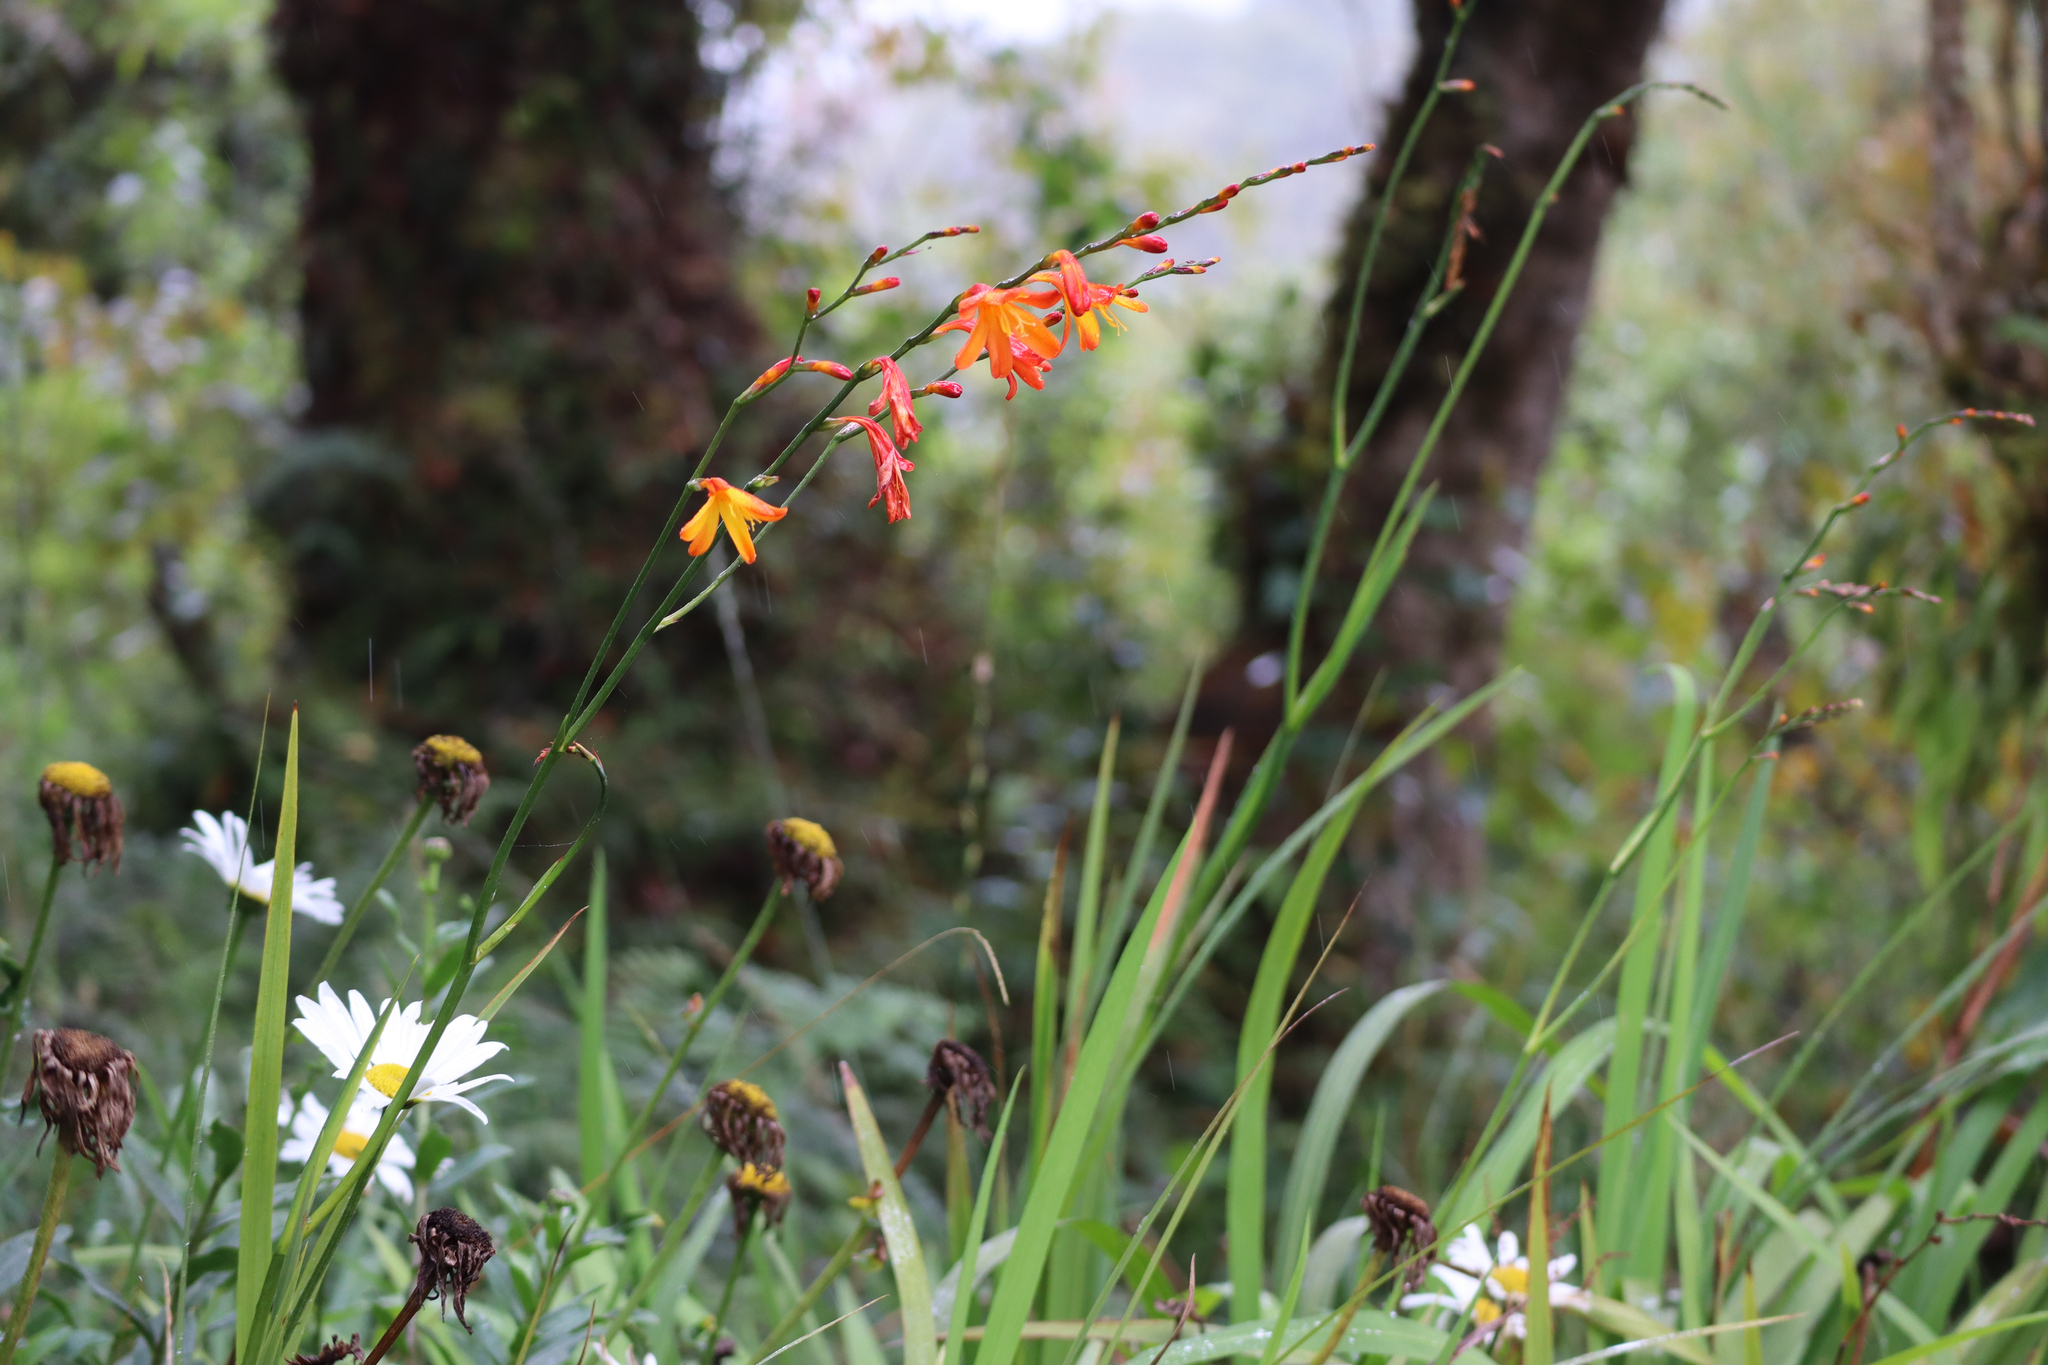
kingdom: Plantae
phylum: Tracheophyta
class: Liliopsida
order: Asparagales
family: Iridaceae
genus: Crocosmia
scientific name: Crocosmia crocosmiiflora
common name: Montbretia
